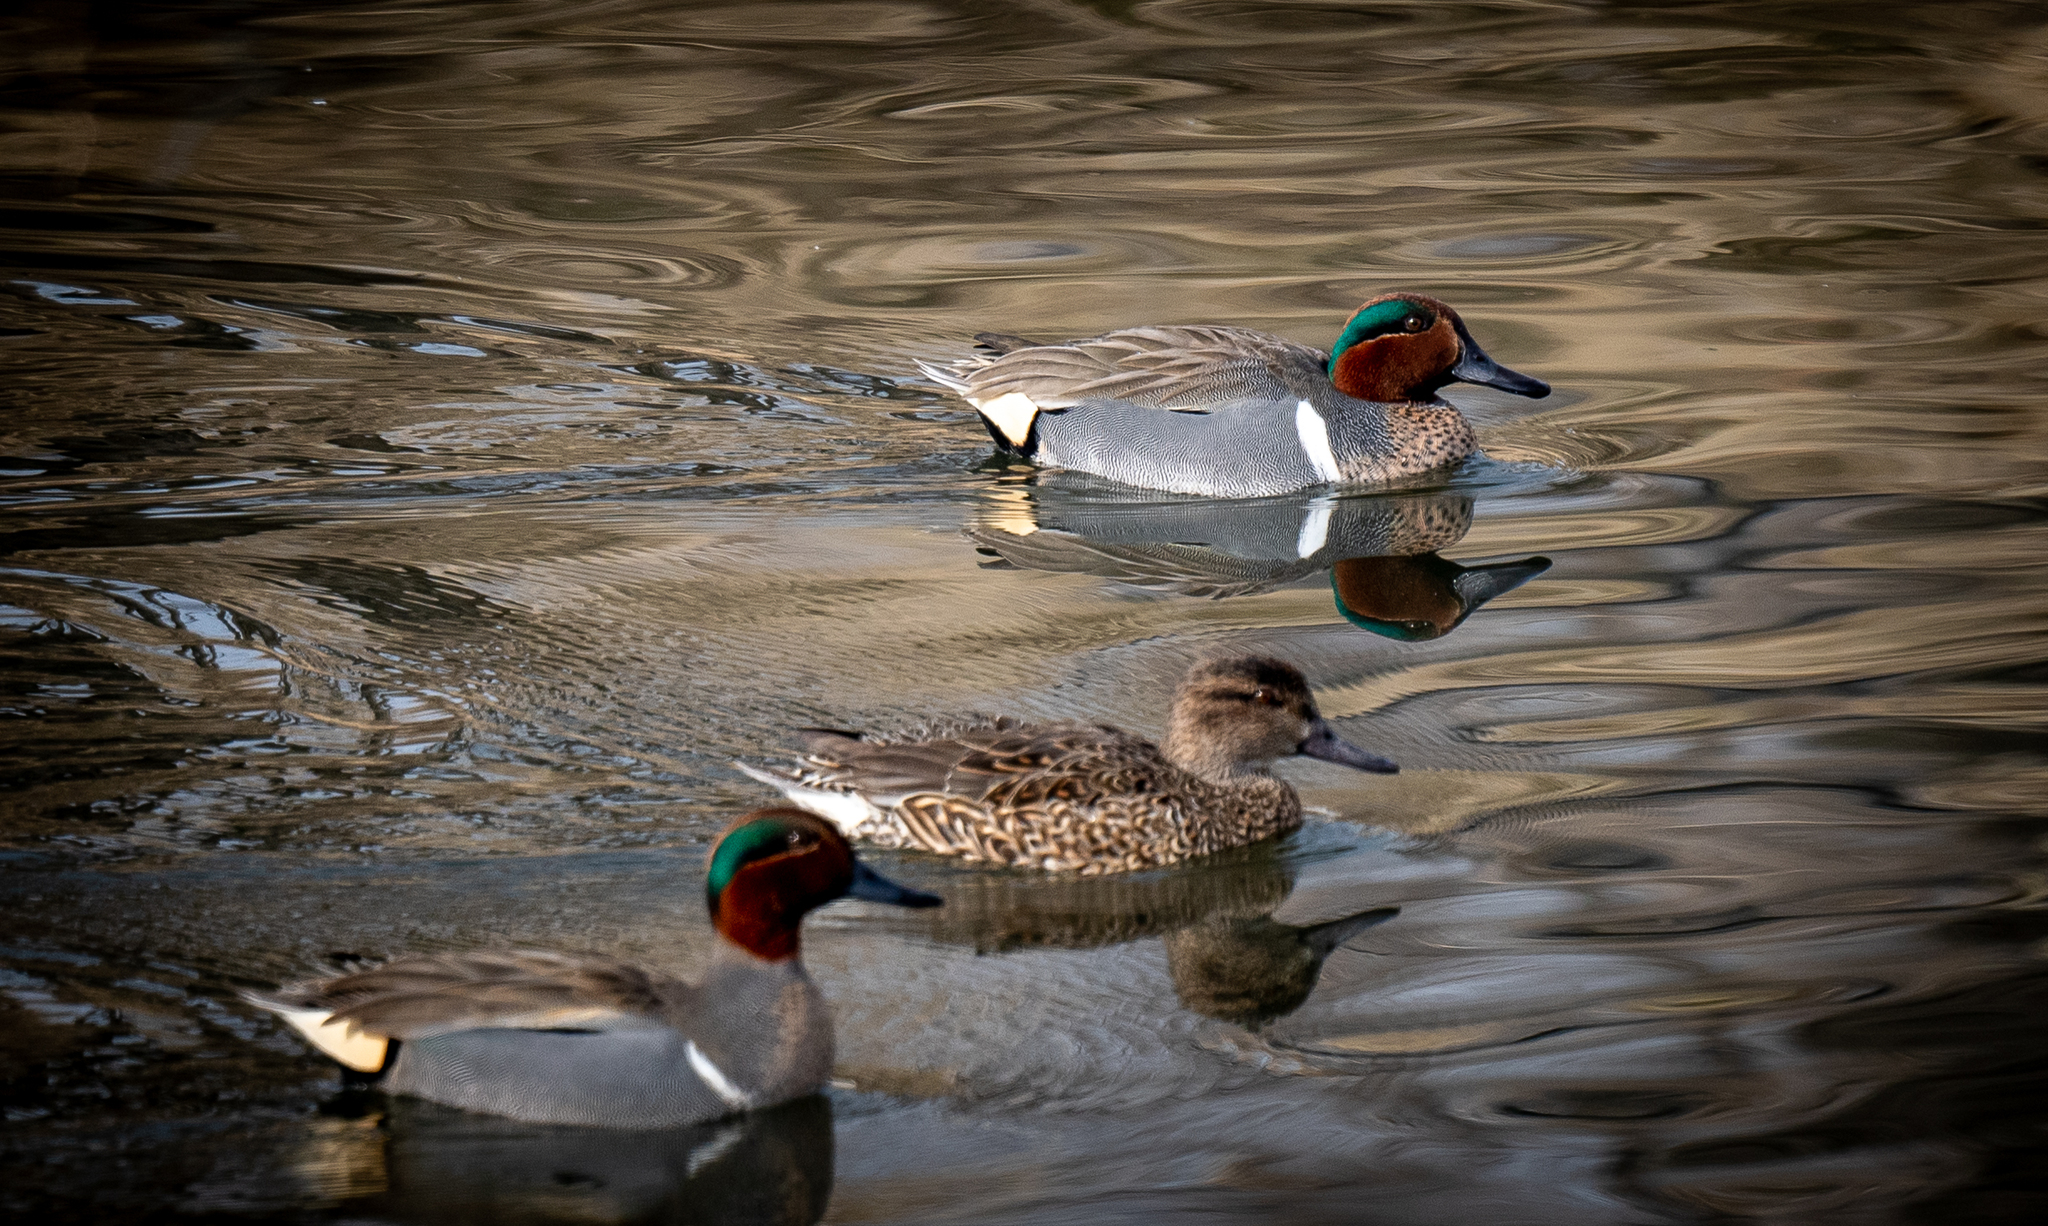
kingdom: Animalia
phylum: Chordata
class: Aves
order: Anseriformes
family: Anatidae
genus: Anas
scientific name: Anas crecca
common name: Eurasian teal
